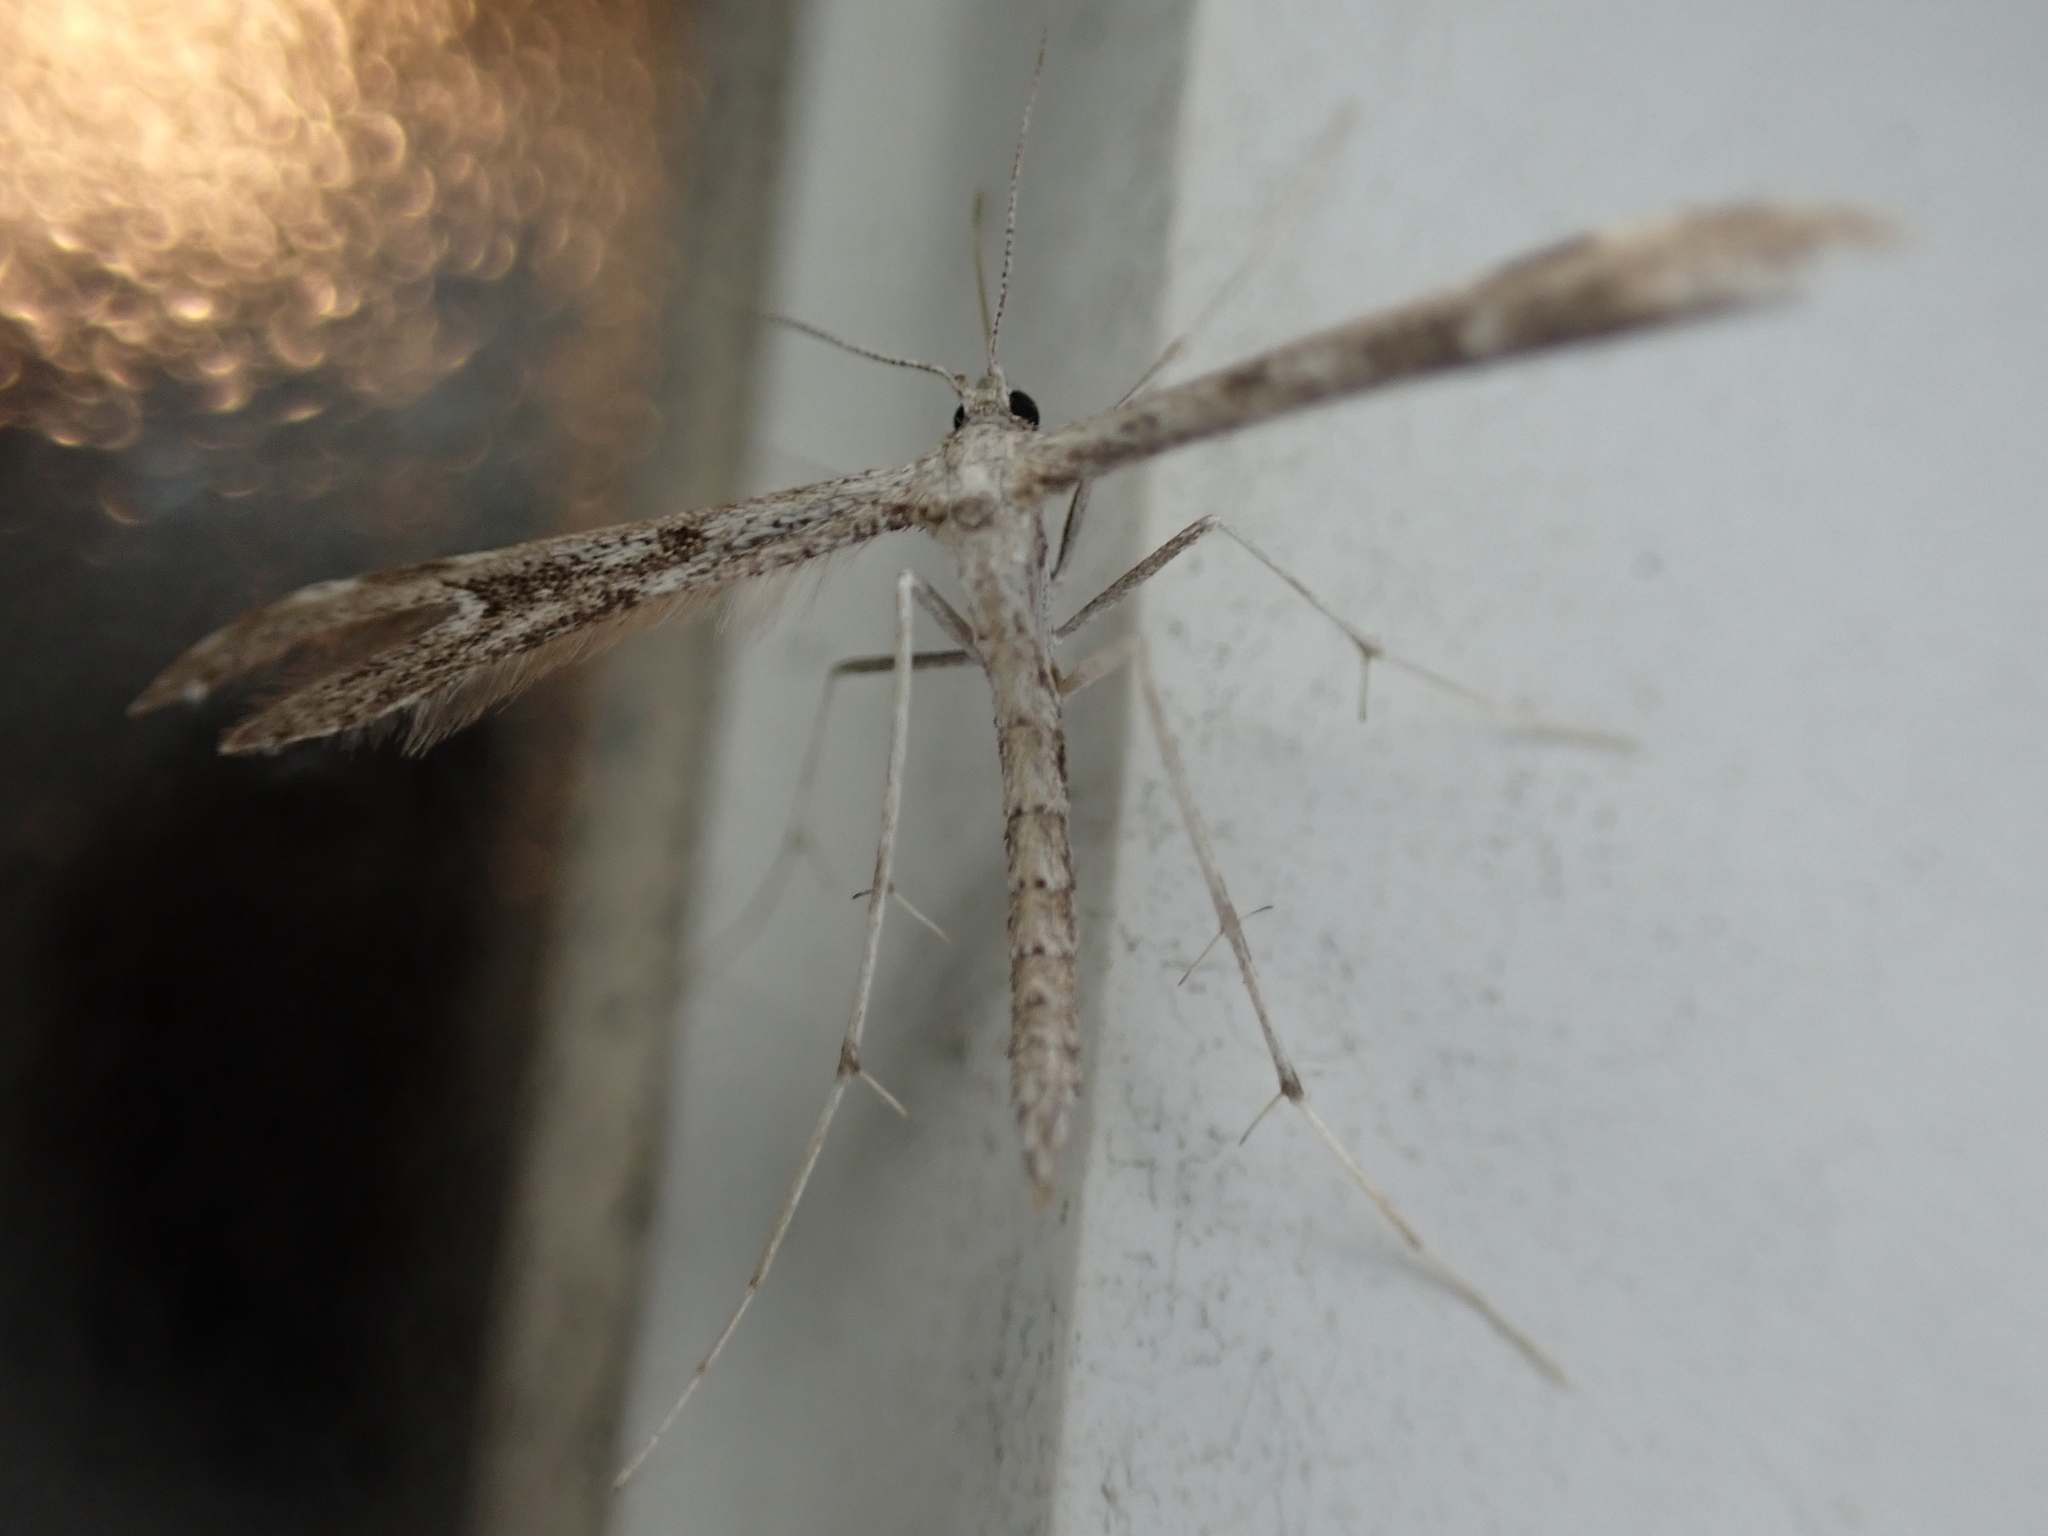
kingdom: Animalia
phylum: Arthropoda
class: Insecta
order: Lepidoptera
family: Pterophoridae
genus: Hellinsia
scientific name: Hellinsia inquinatus
